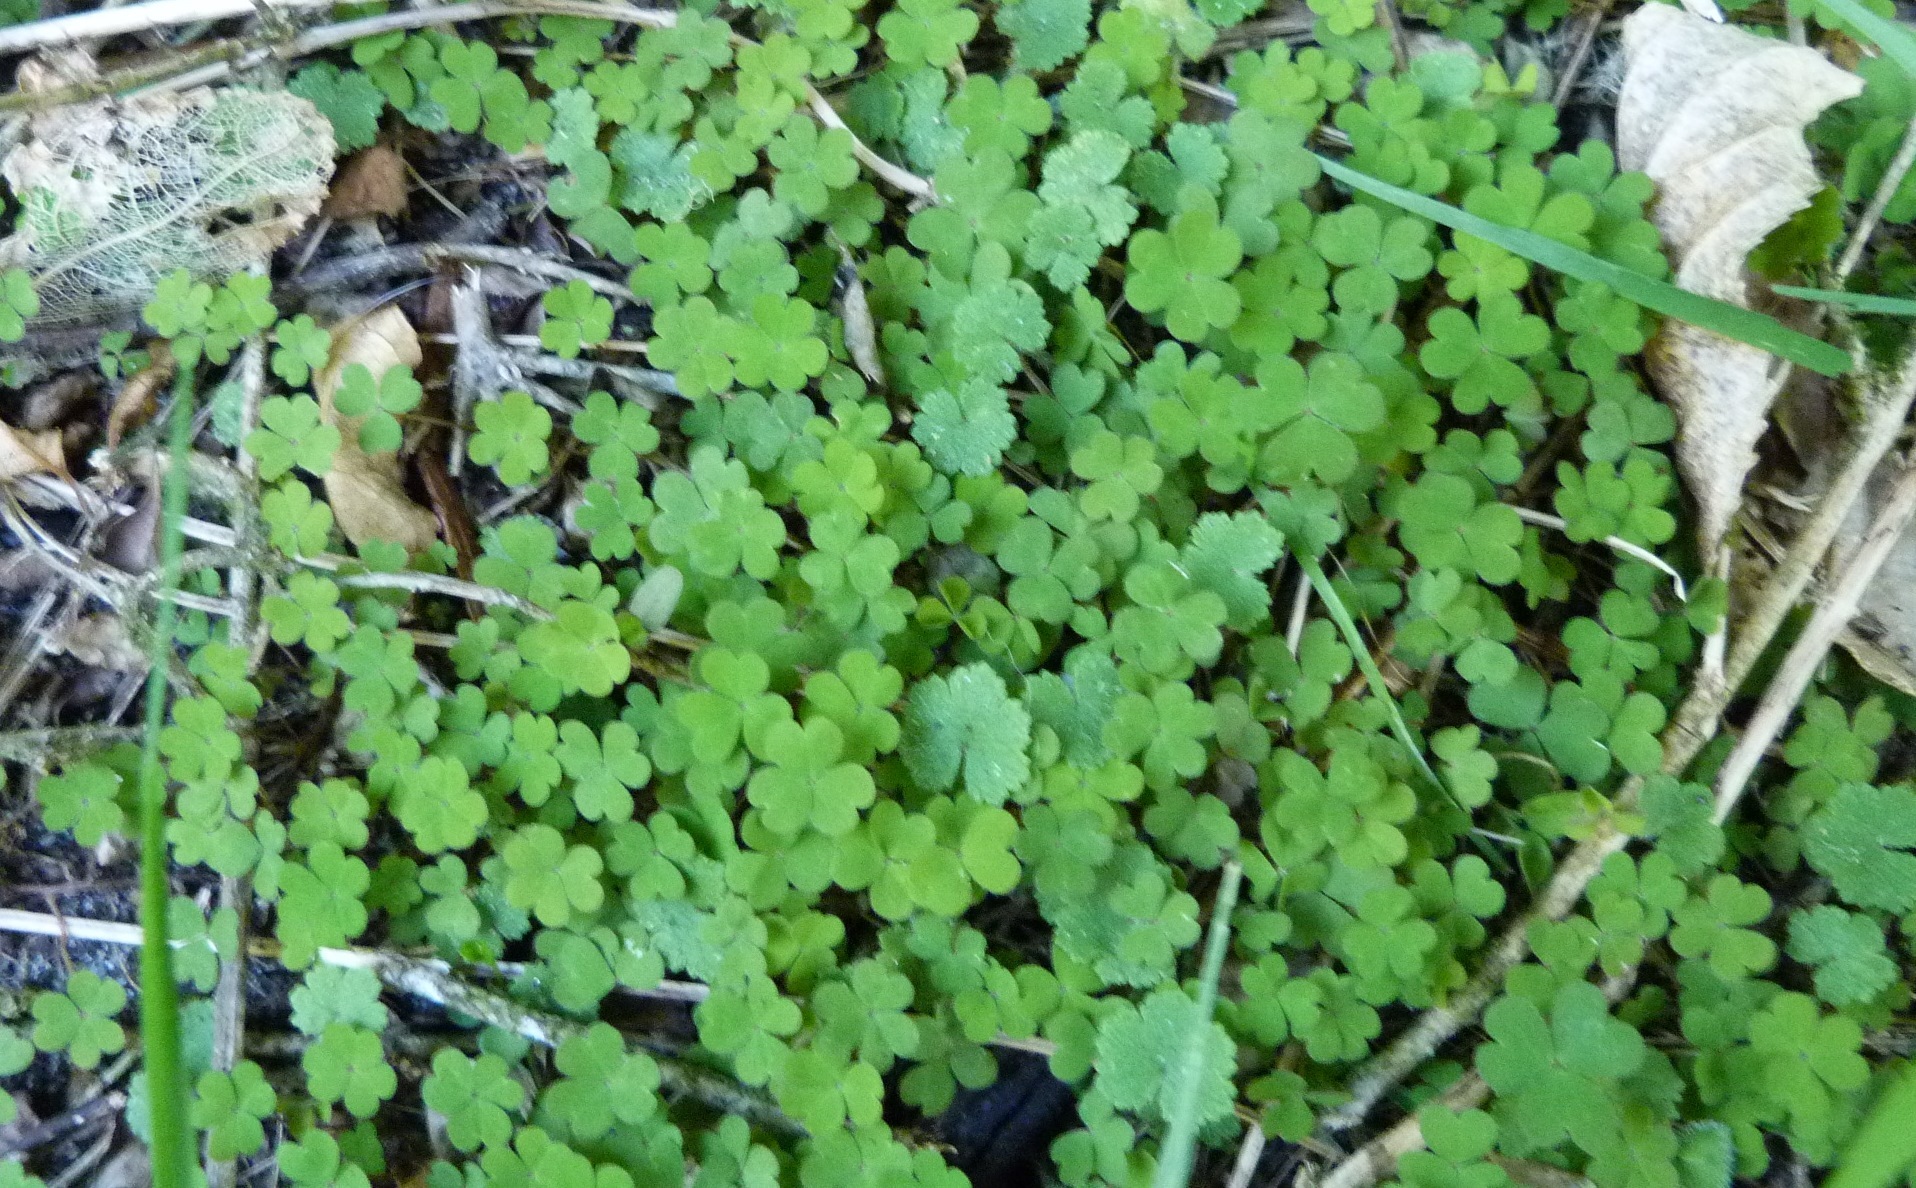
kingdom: Plantae
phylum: Tracheophyta
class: Magnoliopsida
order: Oxalidales
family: Oxalidaceae
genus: Oxalis
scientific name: Oxalis exilis
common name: Least yellow-sorrel
